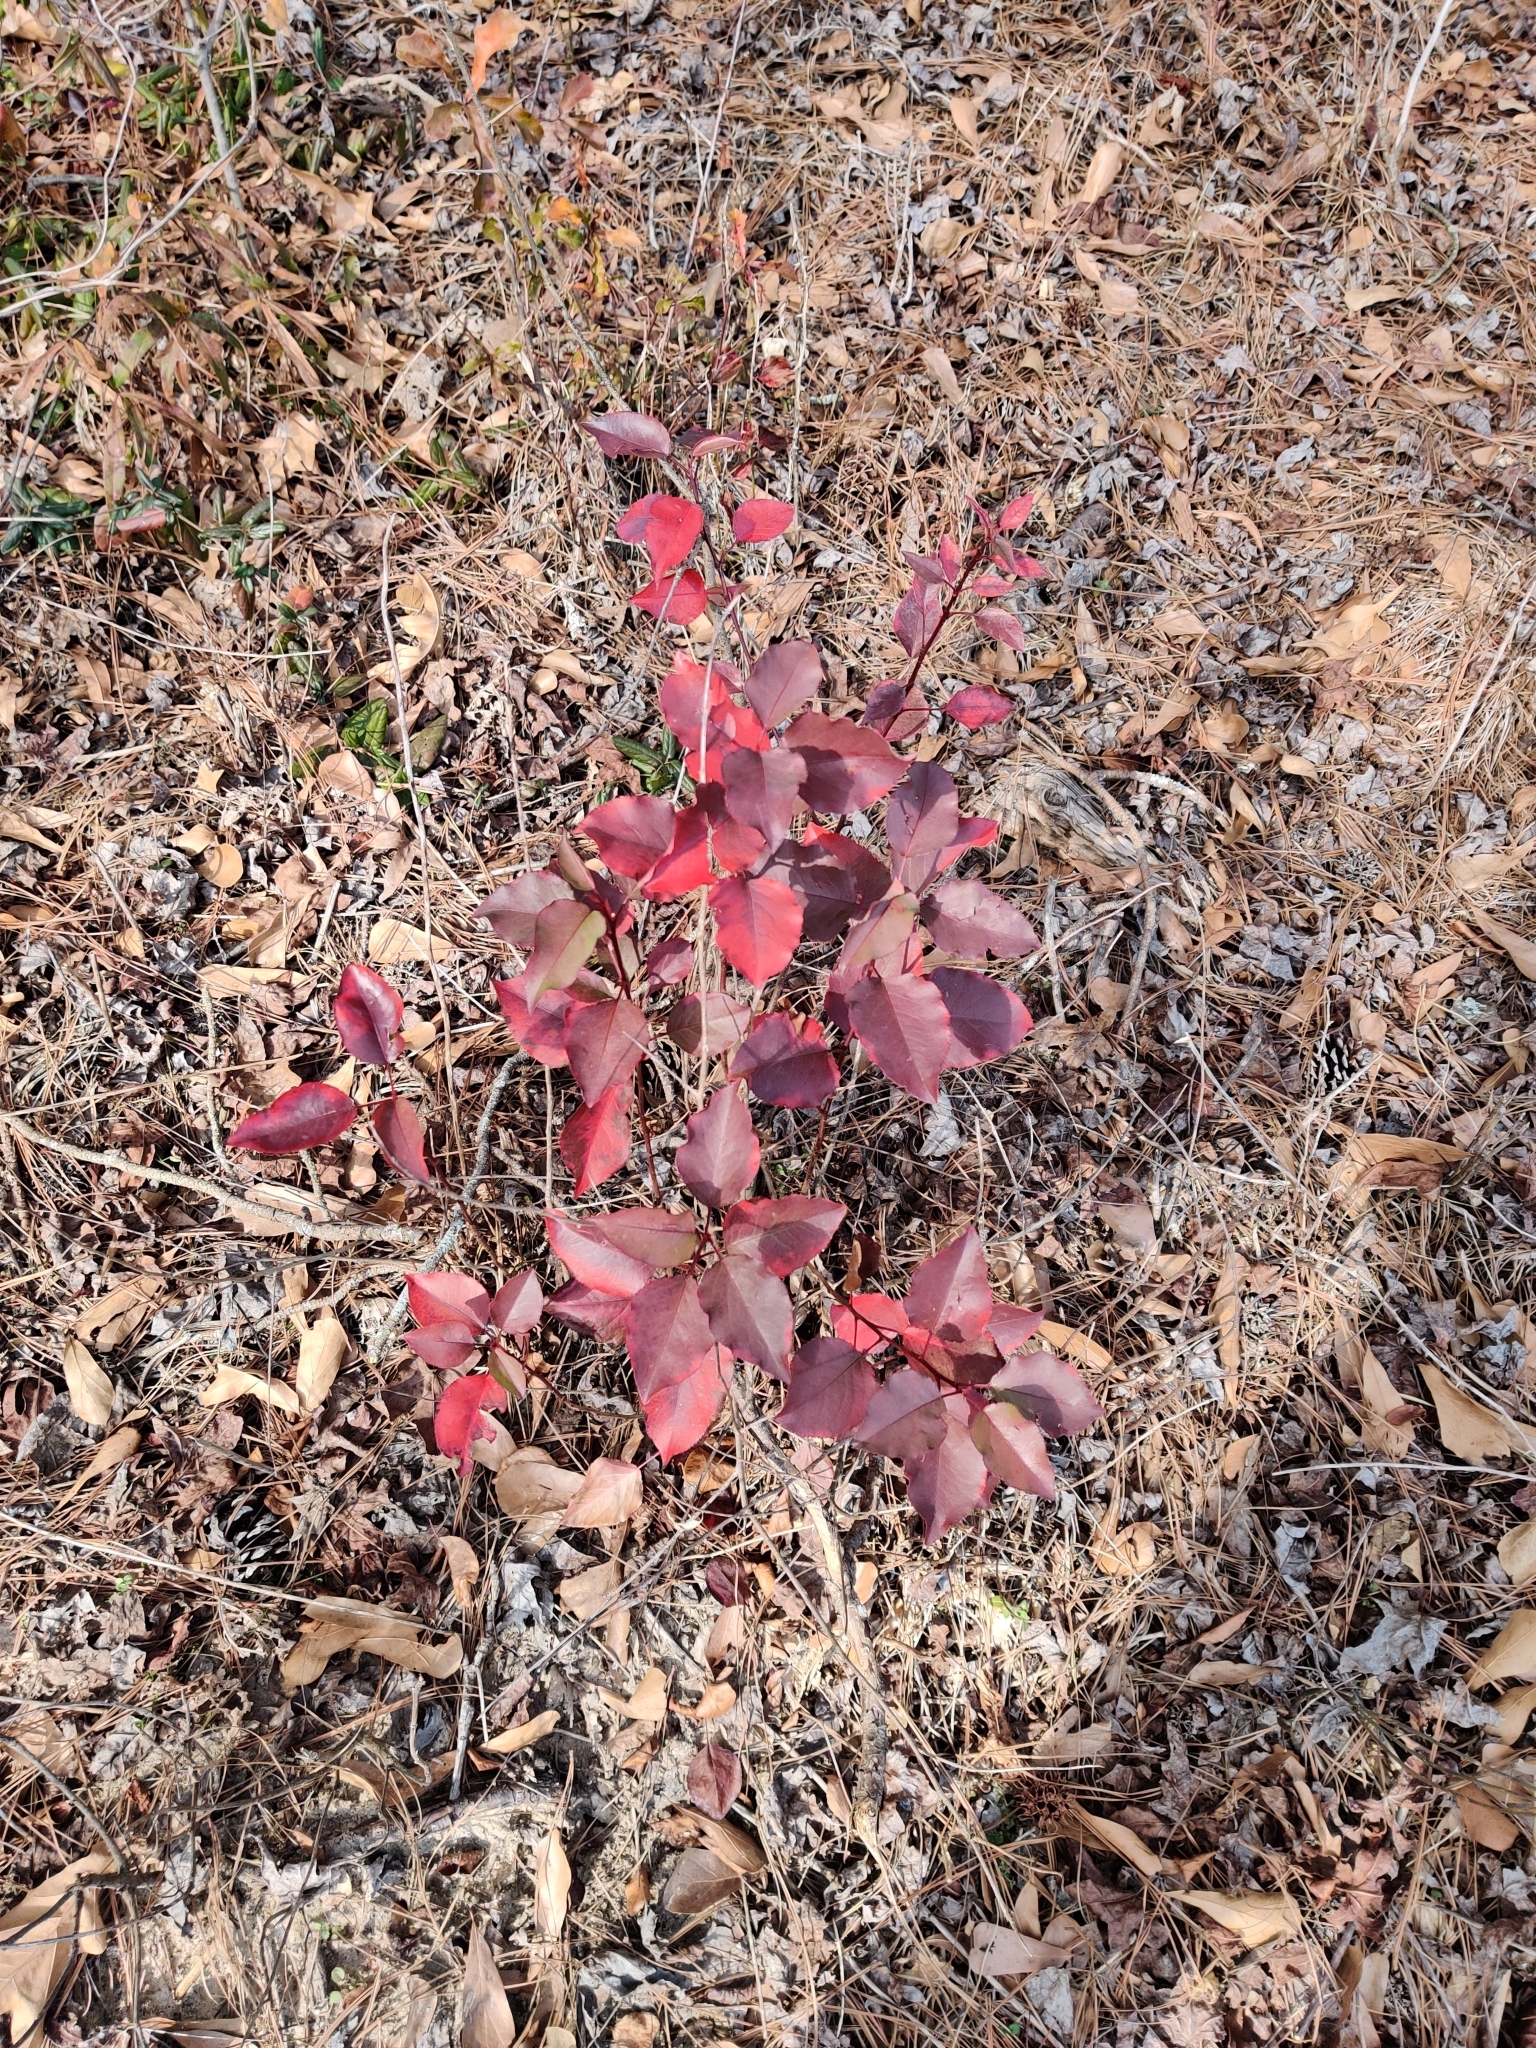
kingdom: Plantae
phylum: Tracheophyta
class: Magnoliopsida
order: Rosales
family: Rosaceae
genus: Pyrus
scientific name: Pyrus calleryana
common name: Callery pear
